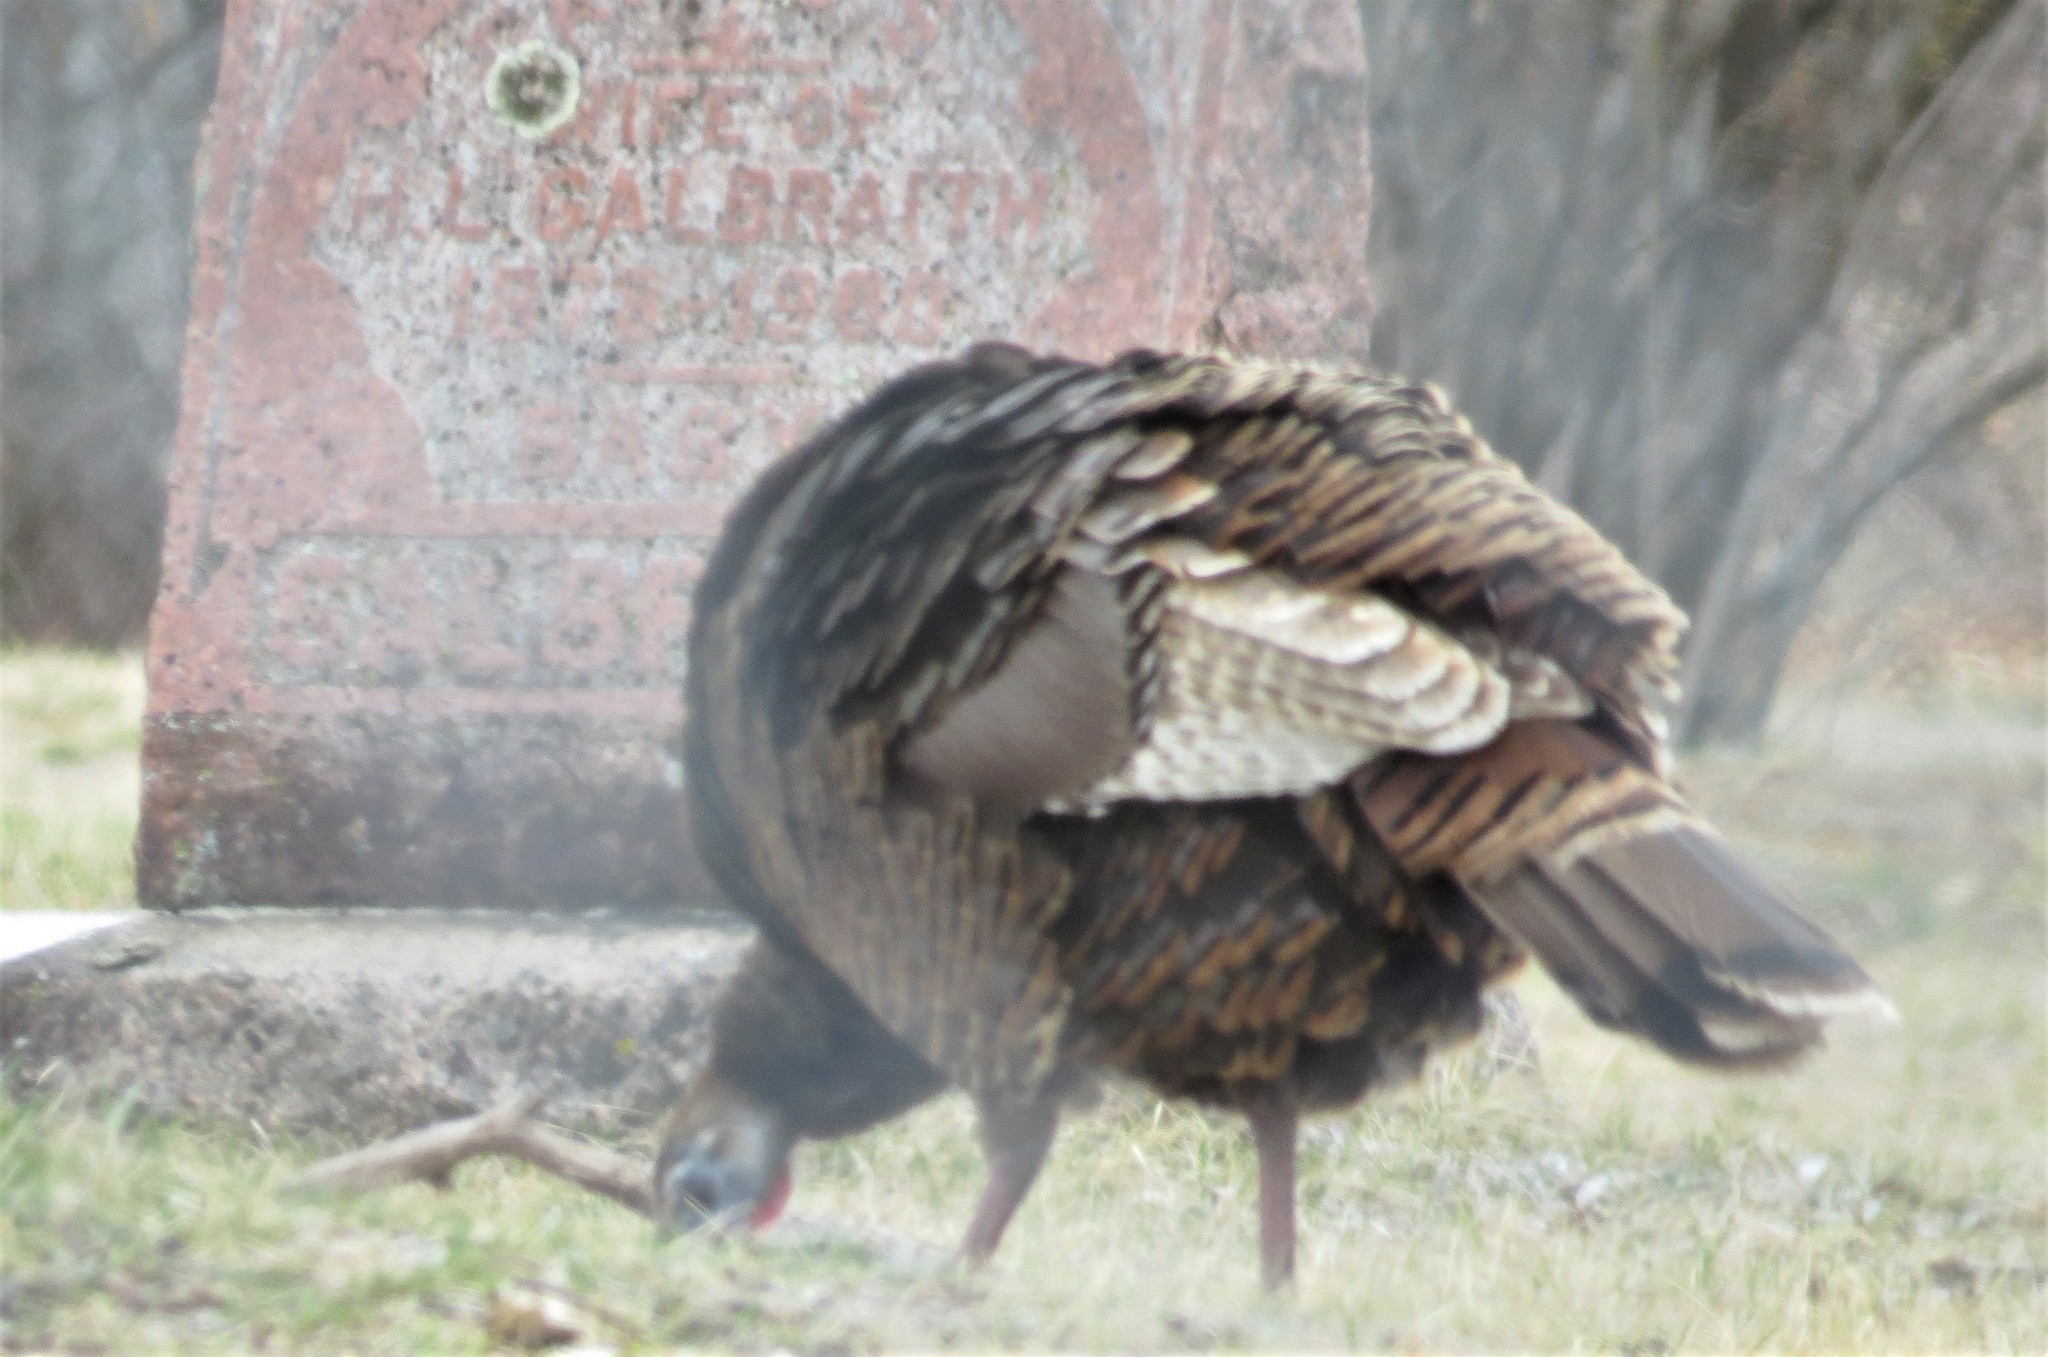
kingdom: Animalia
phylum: Chordata
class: Aves
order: Galliformes
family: Phasianidae
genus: Meleagris
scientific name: Meleagris gallopavo
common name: Wild turkey
